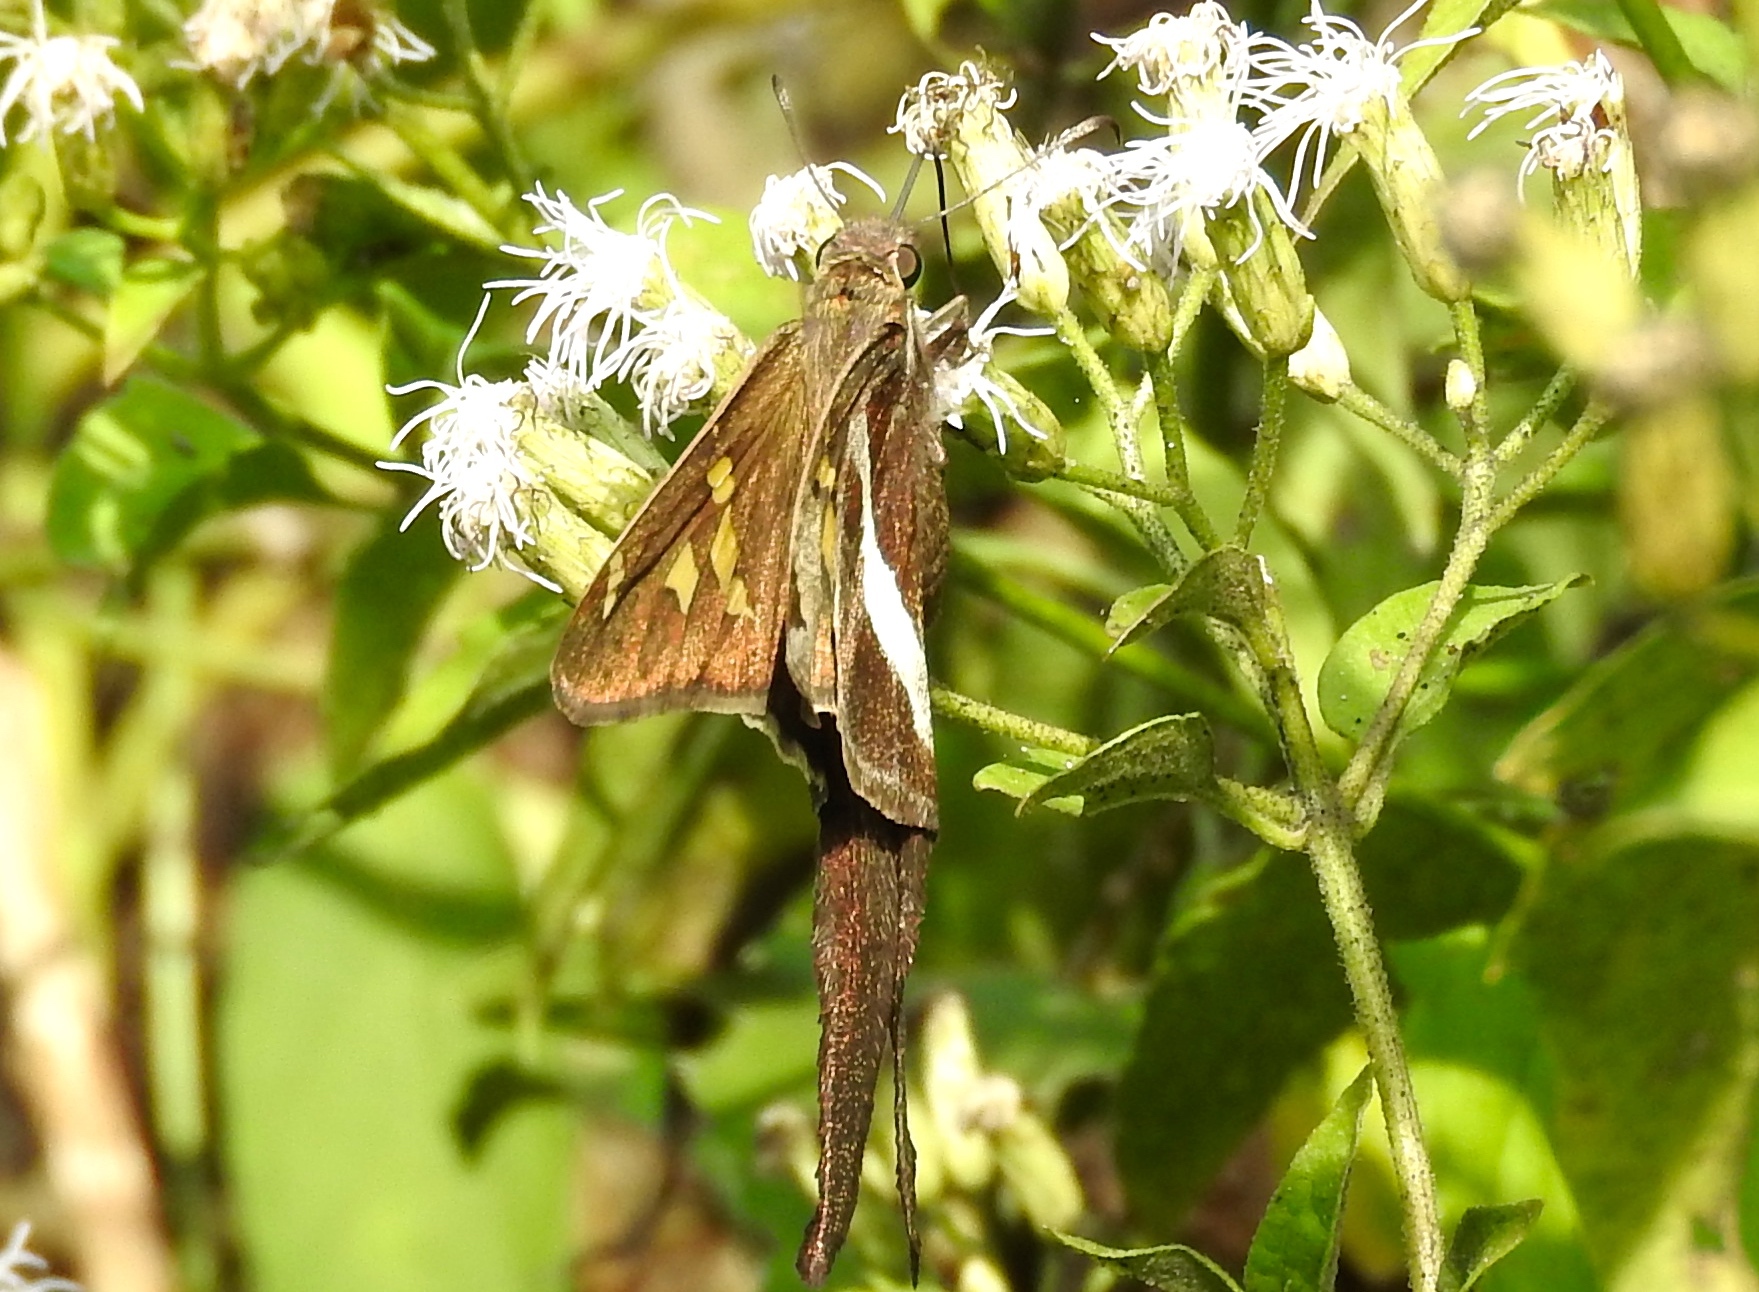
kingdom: Animalia
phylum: Arthropoda
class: Insecta
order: Lepidoptera
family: Hesperiidae
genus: Chioides
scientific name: Chioides catillus
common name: Silverbanded skipper
